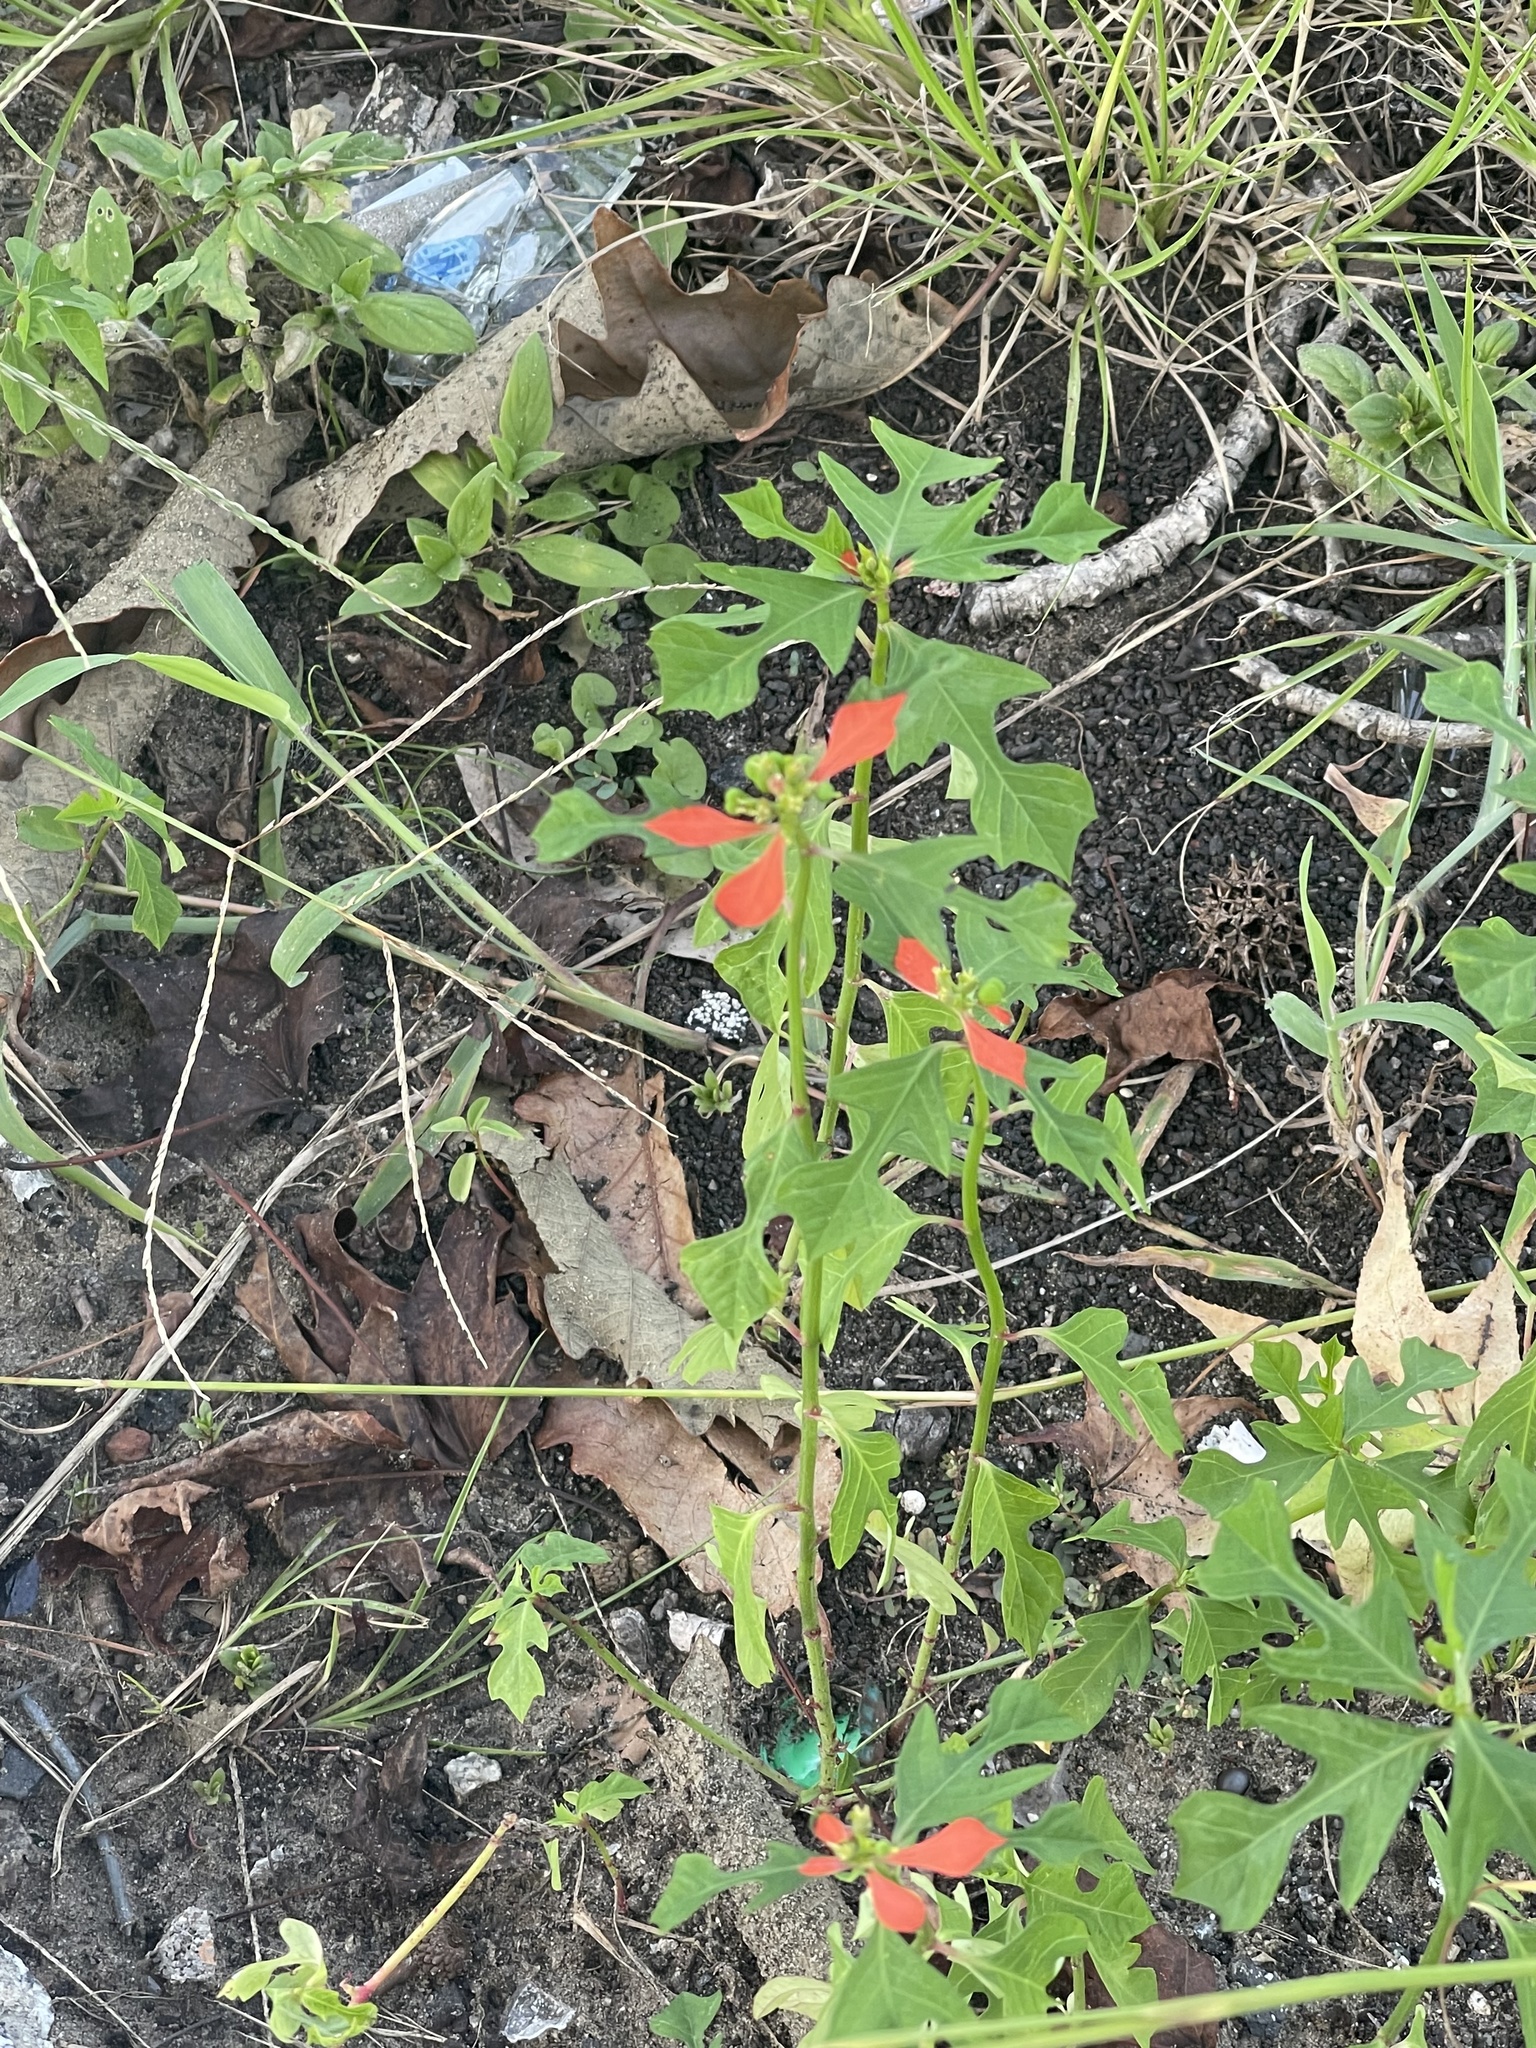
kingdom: Plantae
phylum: Tracheophyta
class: Magnoliopsida
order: Malpighiales
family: Euphorbiaceae
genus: Euphorbia
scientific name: Euphorbia heterophylla
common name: Mexican fireplant
